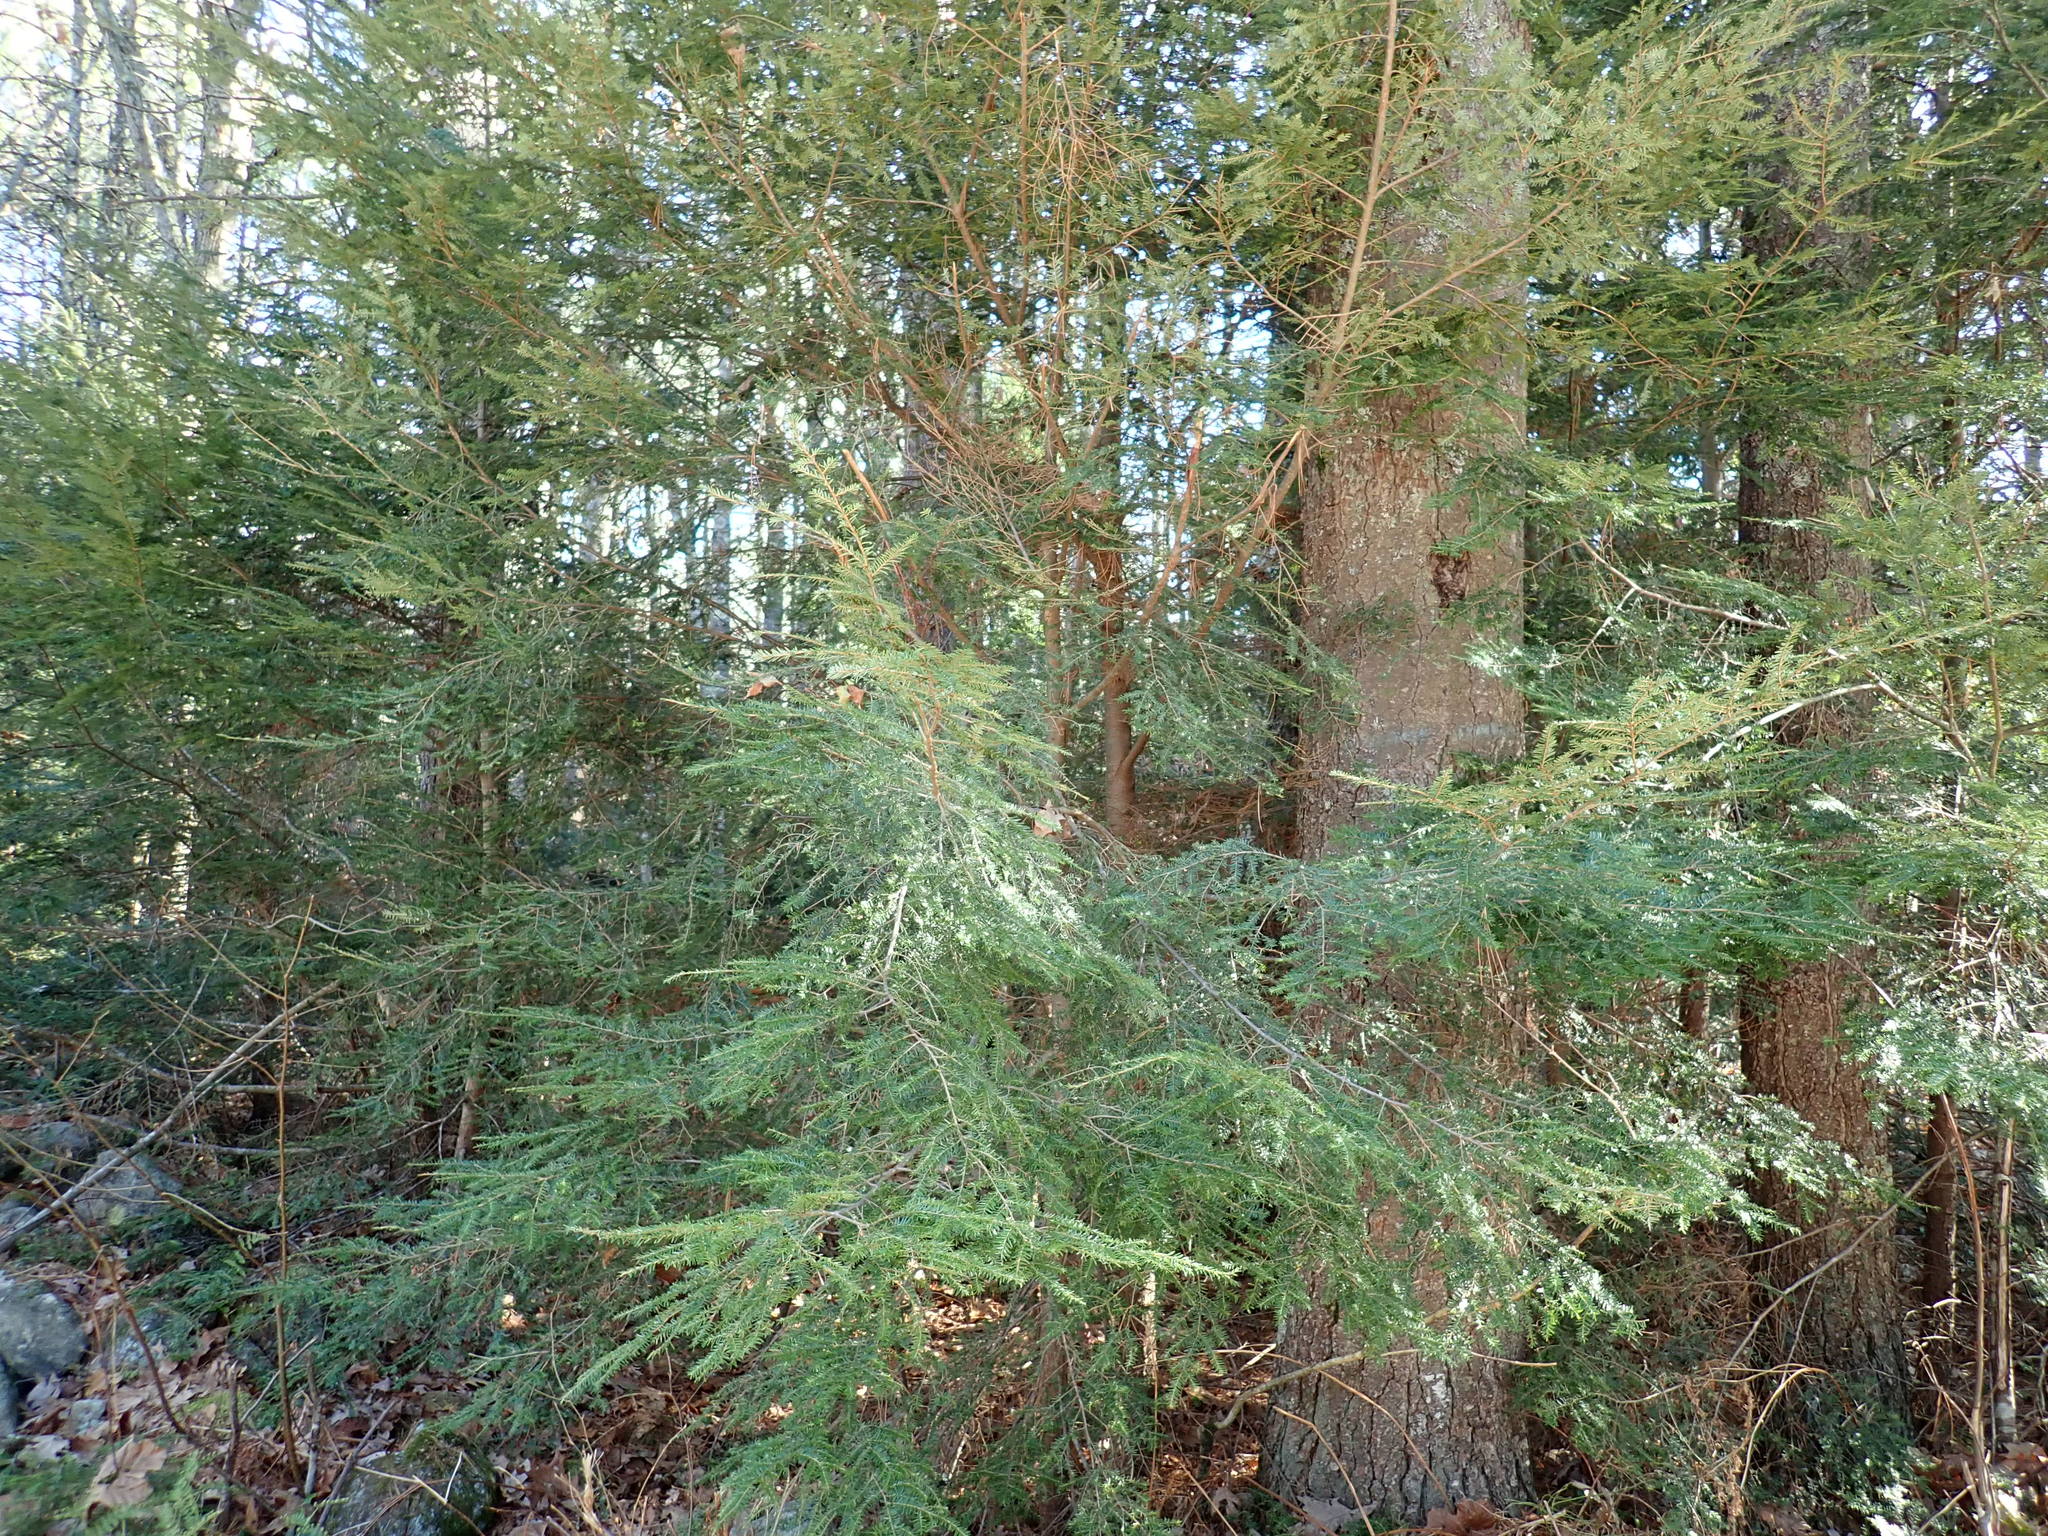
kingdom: Plantae
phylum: Tracheophyta
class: Pinopsida
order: Pinales
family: Pinaceae
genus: Tsuga
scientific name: Tsuga canadensis
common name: Eastern hemlock
